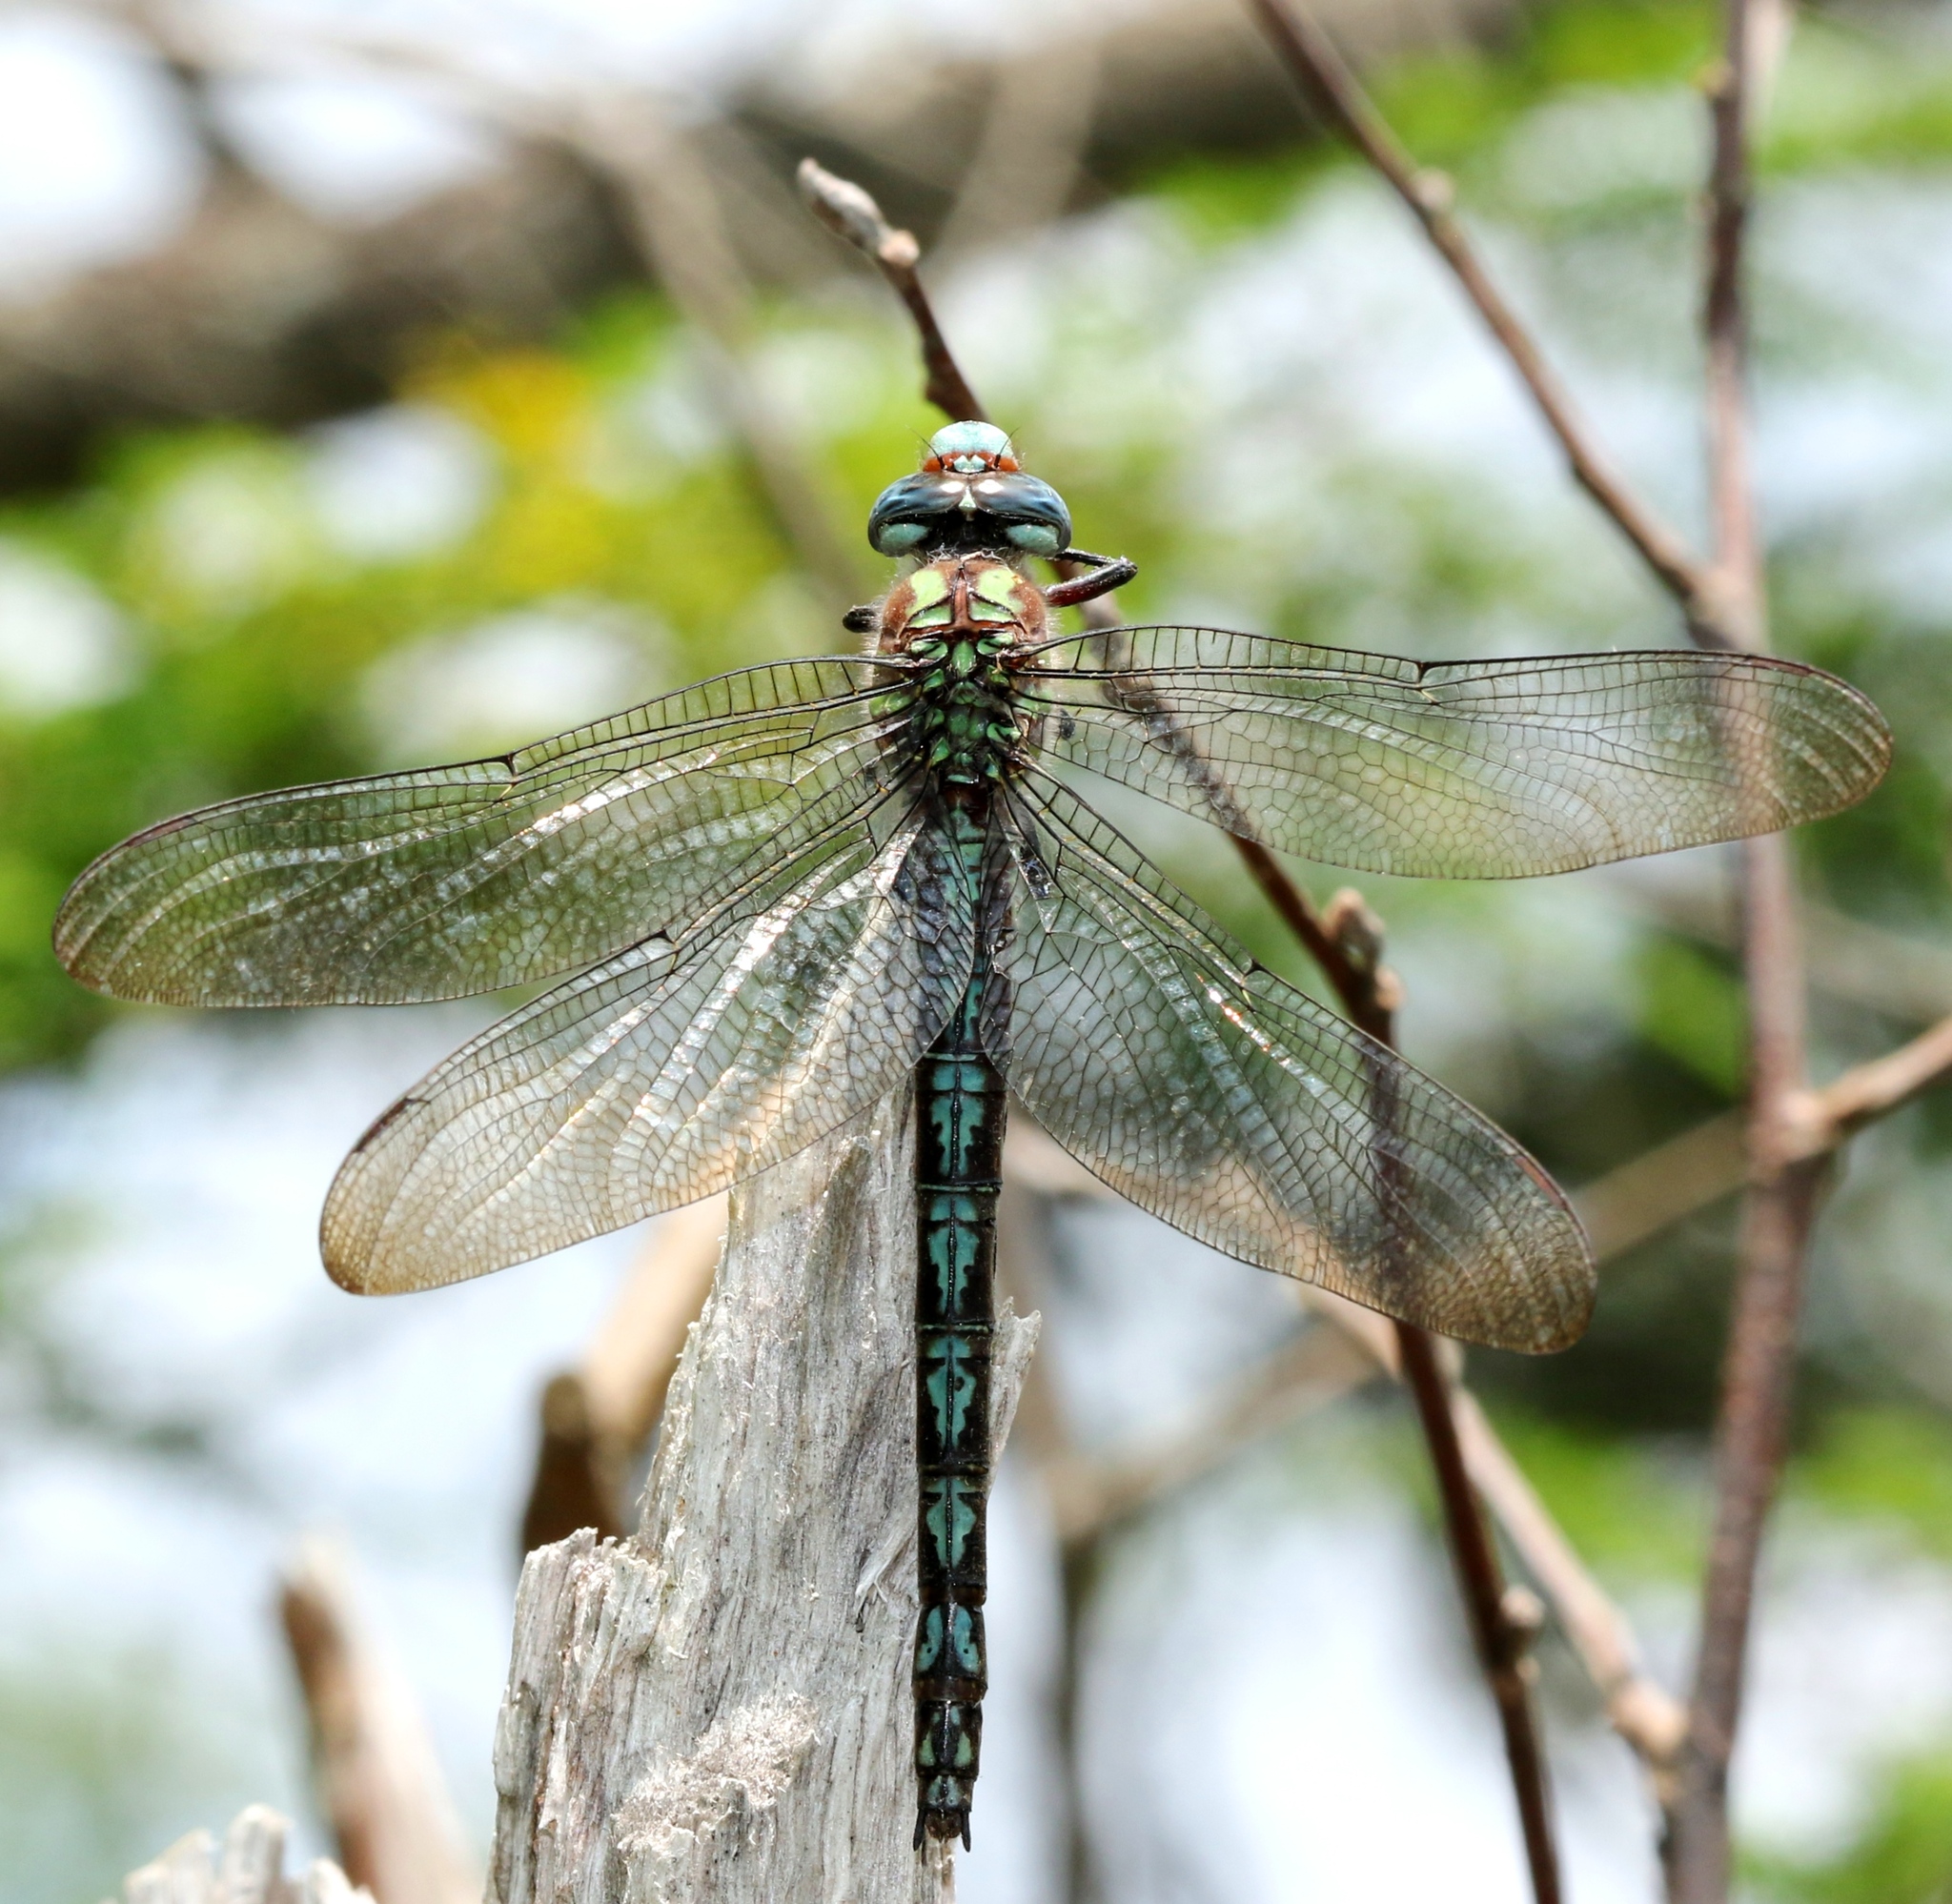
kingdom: Animalia
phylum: Arthropoda
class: Insecta
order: Odonata
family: Aeshnidae
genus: Nasiaeschna
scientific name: Nasiaeschna pentacantha
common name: Cyrano darner
